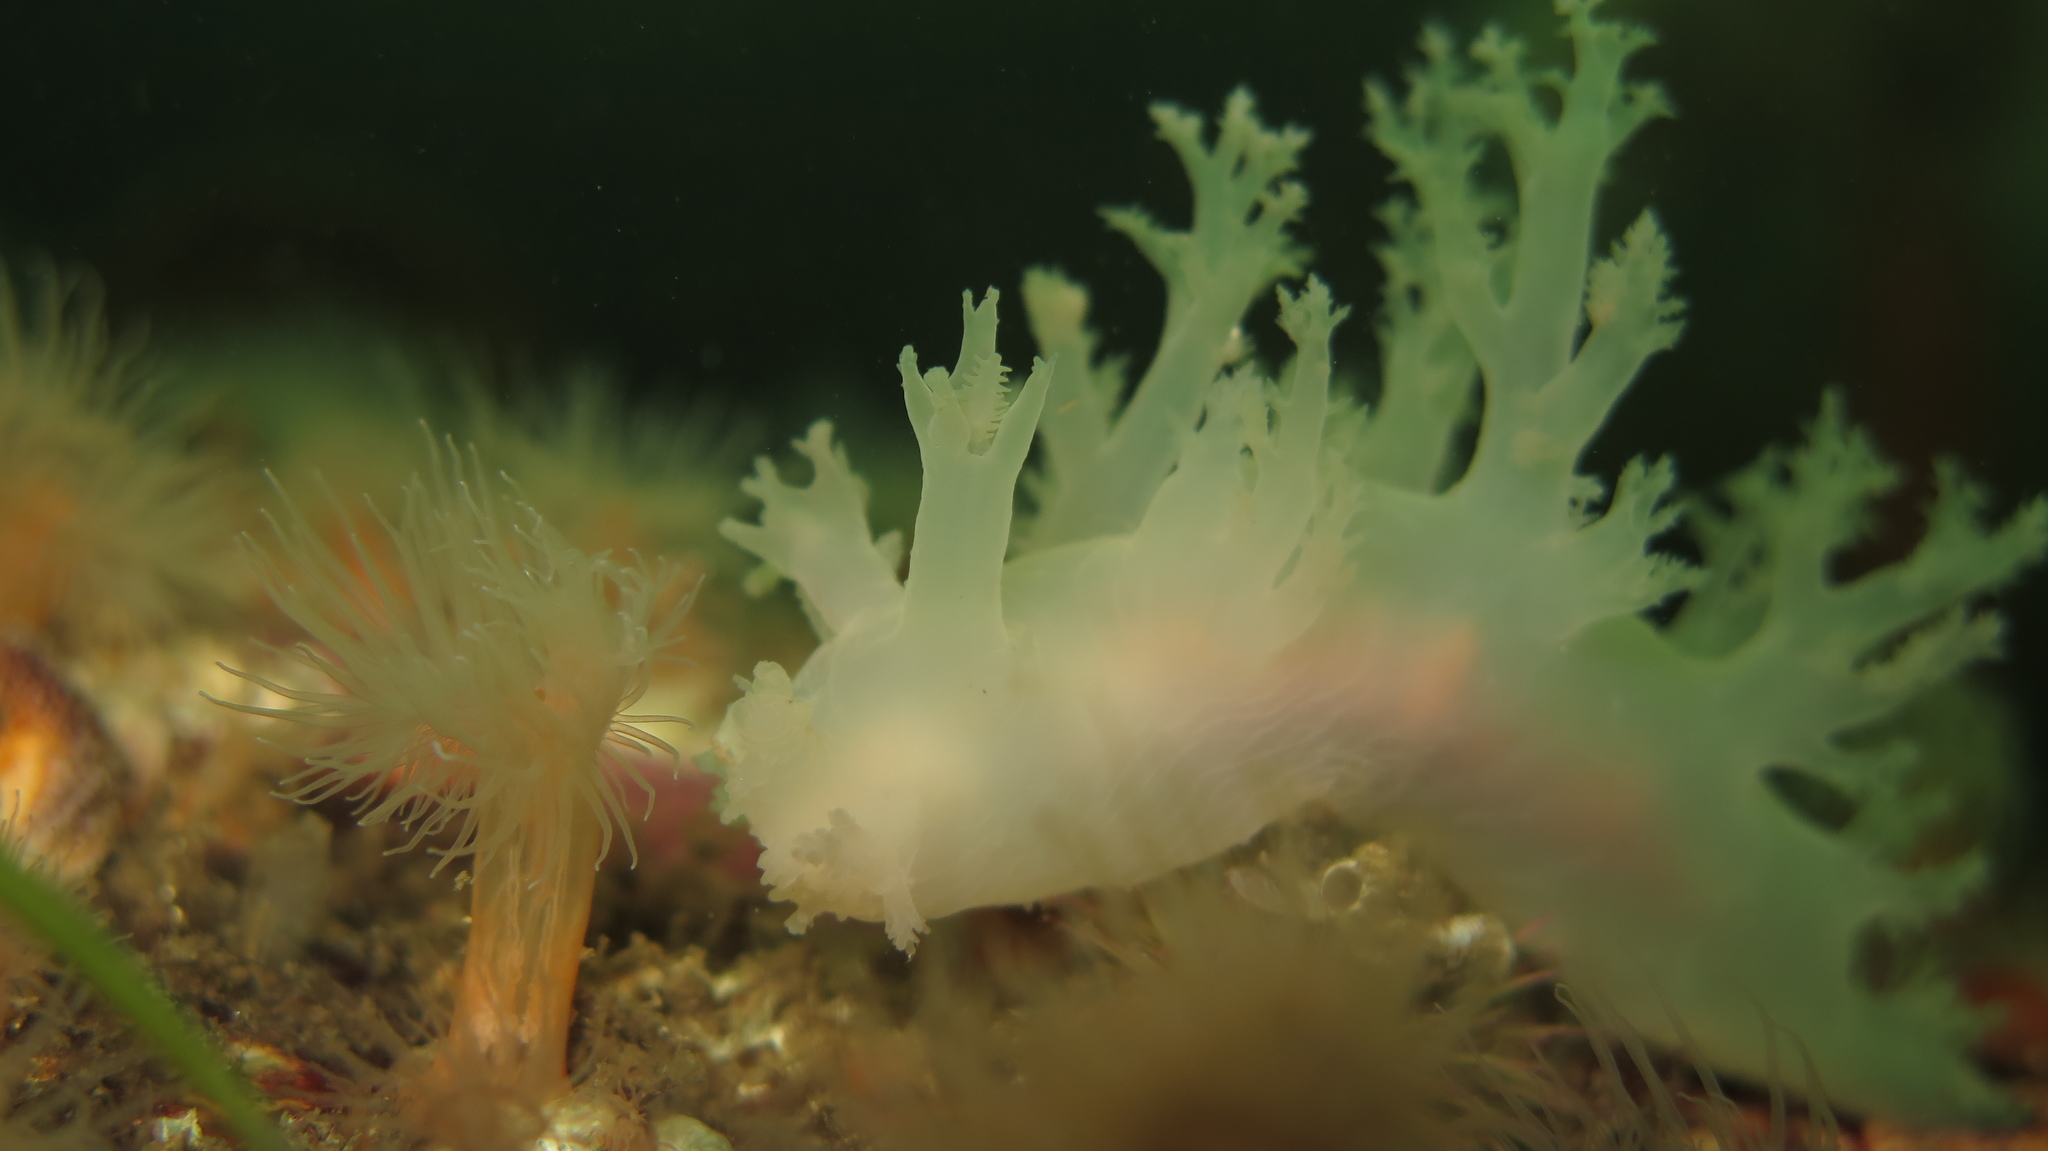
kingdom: Animalia
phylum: Mollusca
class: Gastropoda
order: Nudibranchia
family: Dendronotidae
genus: Dendronotus
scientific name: Dendronotus frondosus
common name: Bushy-backed nudibranch
